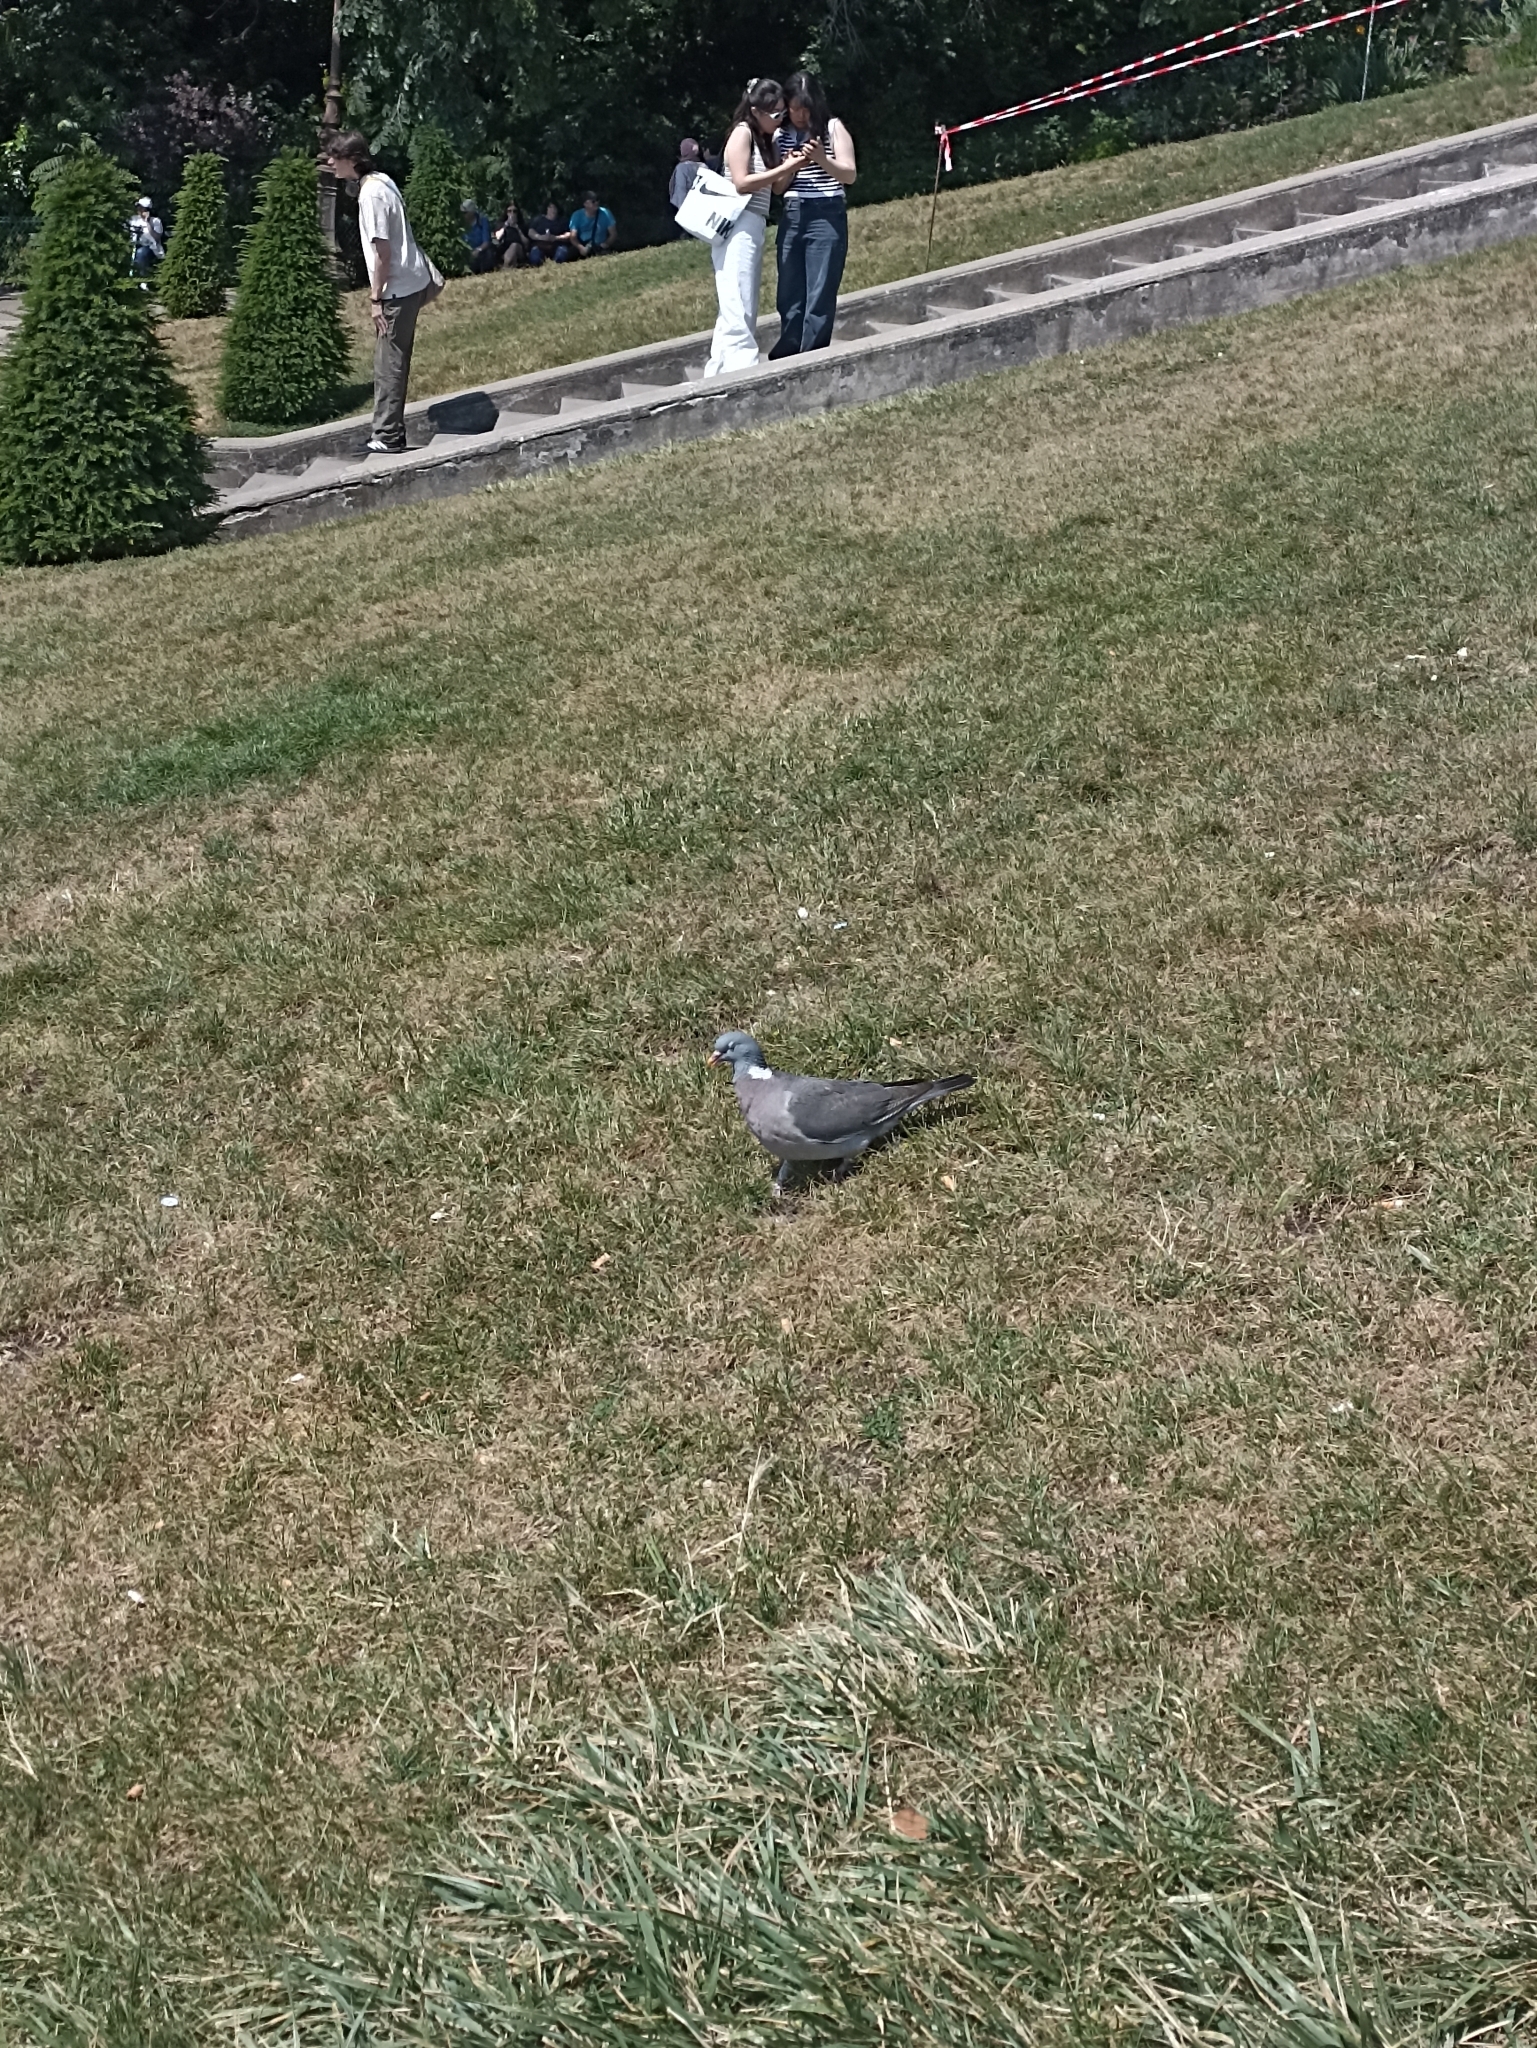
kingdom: Animalia
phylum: Chordata
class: Aves
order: Columbiformes
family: Columbidae
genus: Columba
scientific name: Columba palumbus
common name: Common wood pigeon
